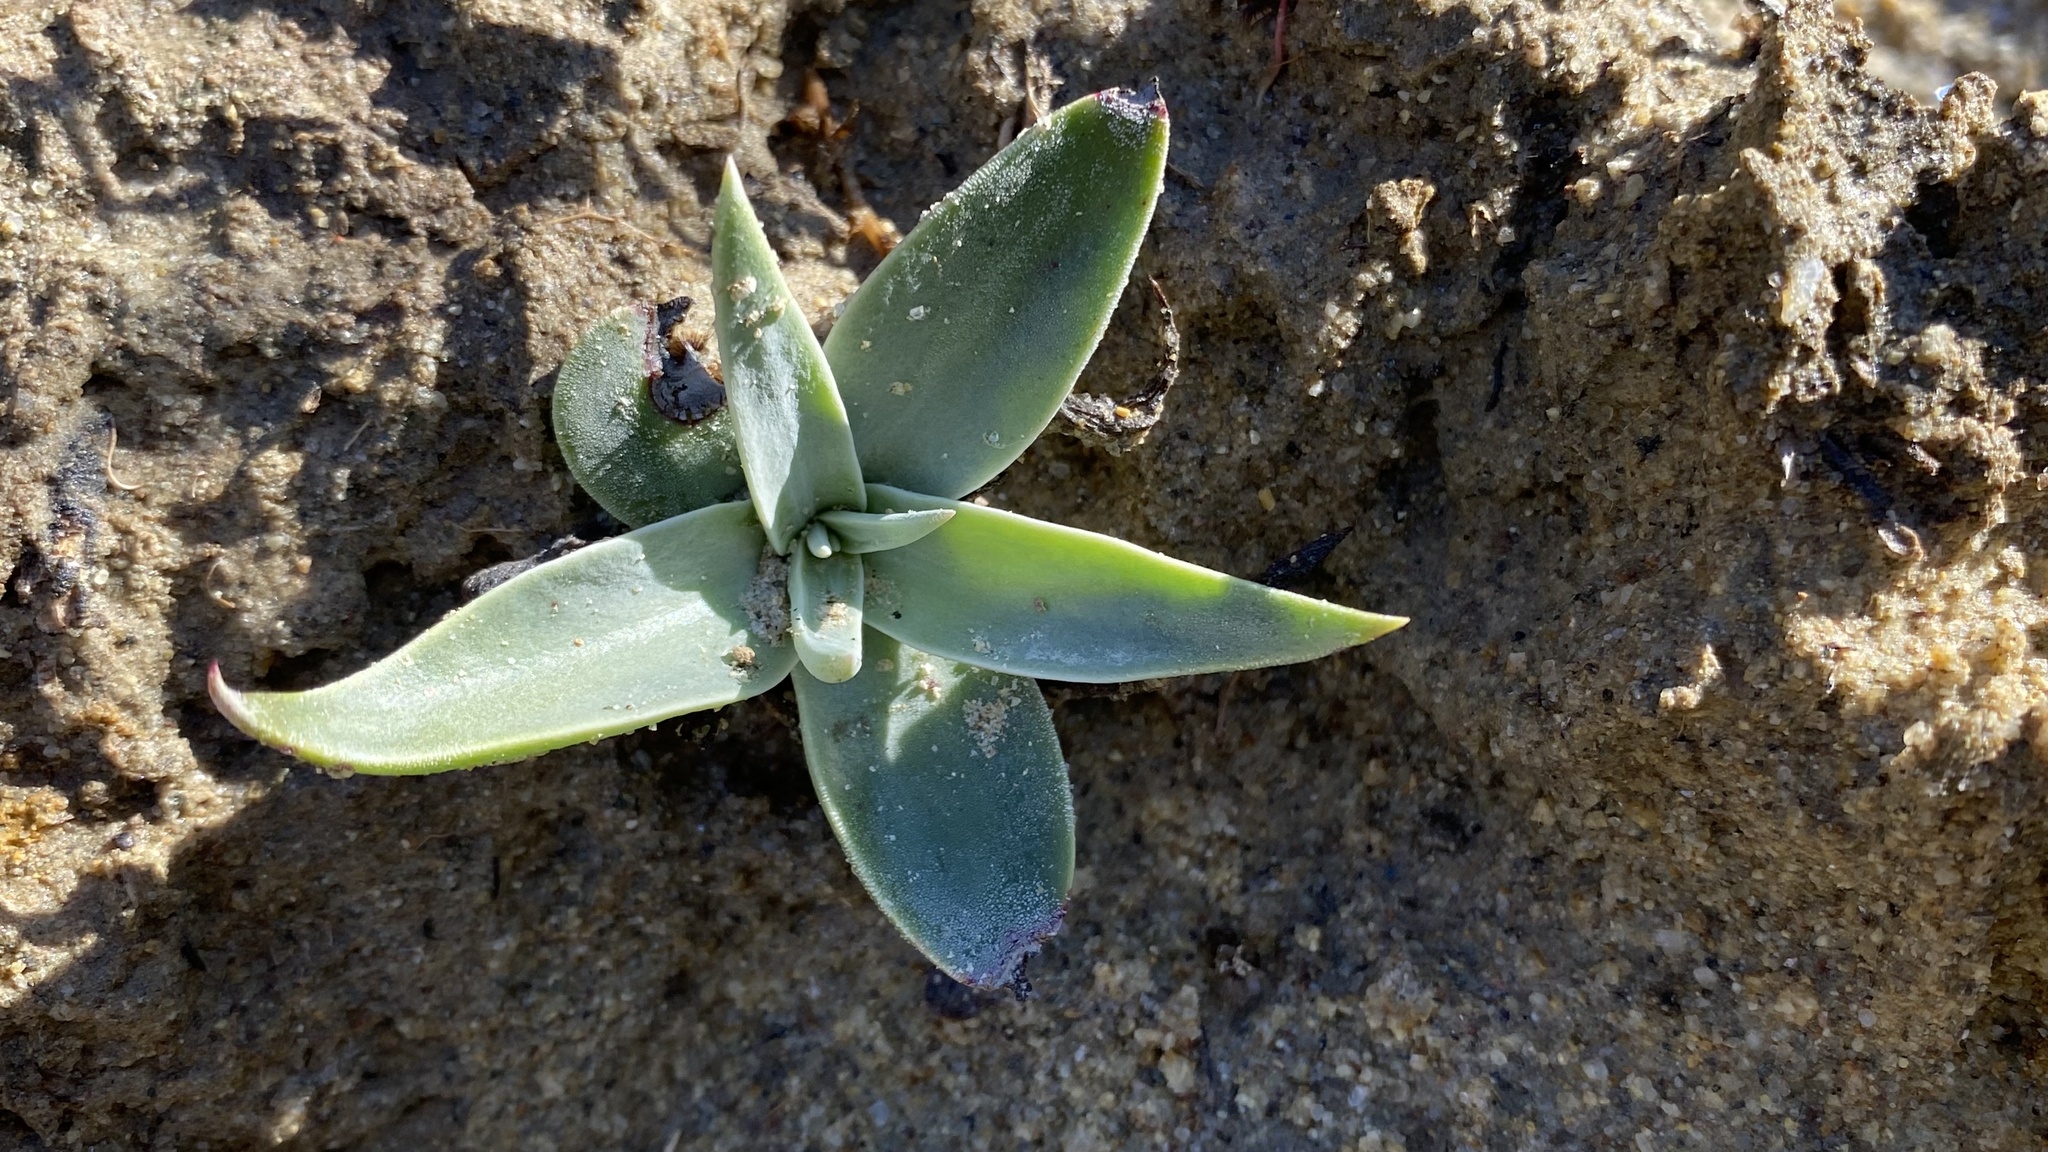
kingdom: Plantae
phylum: Tracheophyta
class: Magnoliopsida
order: Saxifragales
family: Crassulaceae
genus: Dudleya
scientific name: Dudleya lanceolata
